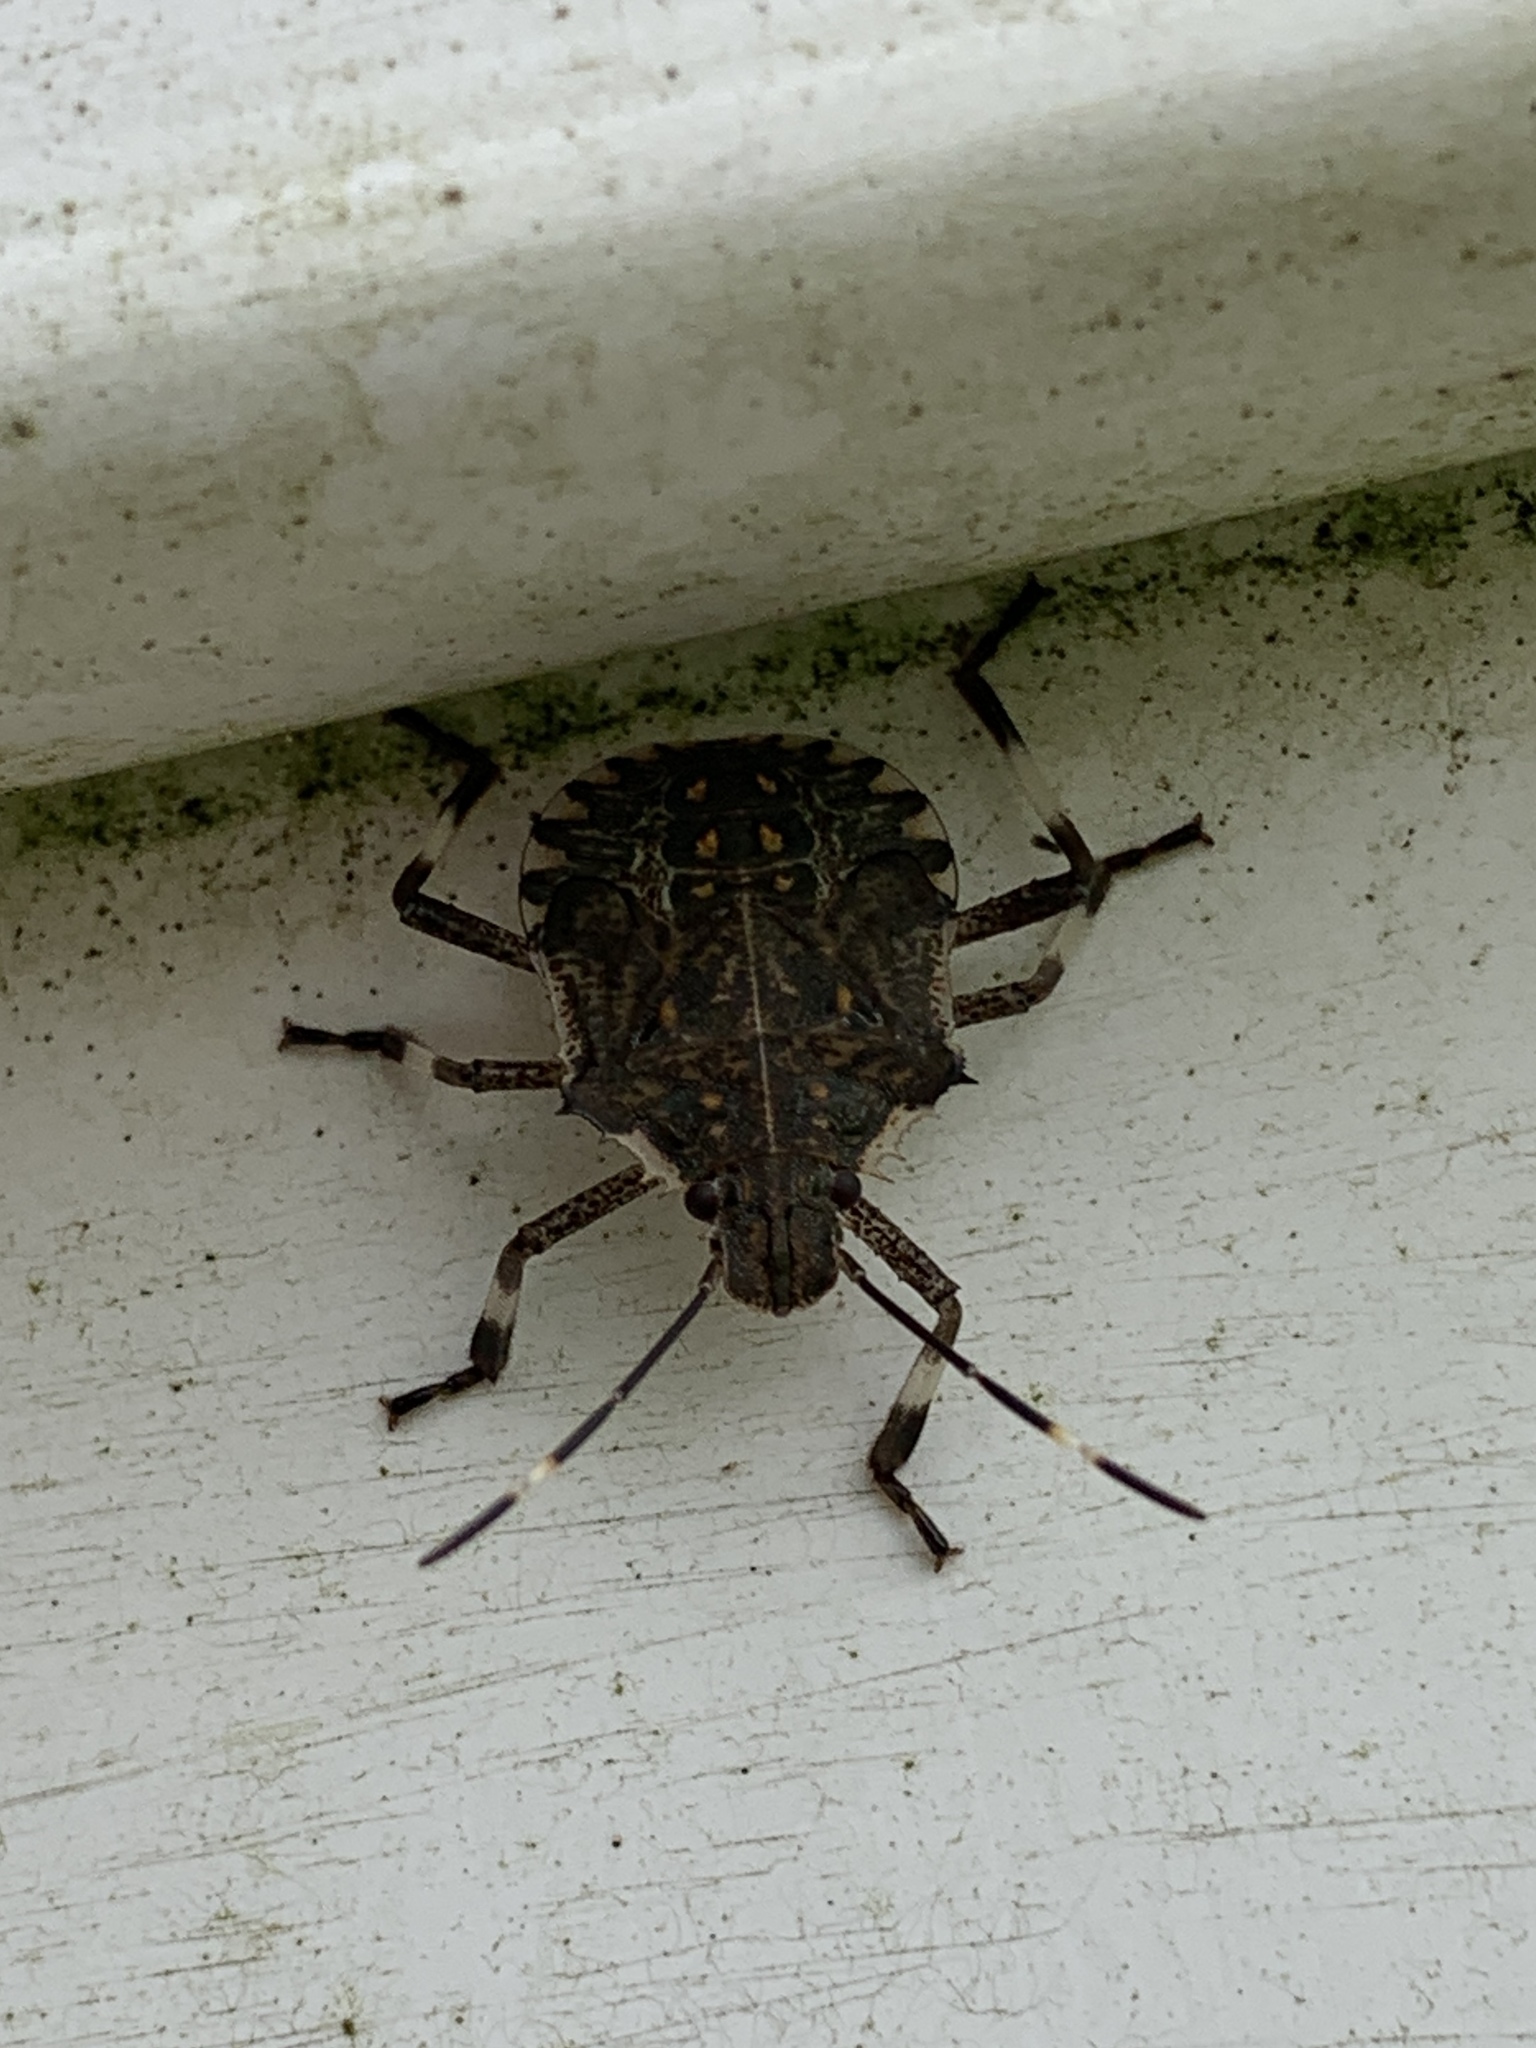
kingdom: Animalia
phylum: Arthropoda
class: Insecta
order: Hemiptera
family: Pentatomidae
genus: Halyomorpha
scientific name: Halyomorpha halys
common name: Brown marmorated stink bug
